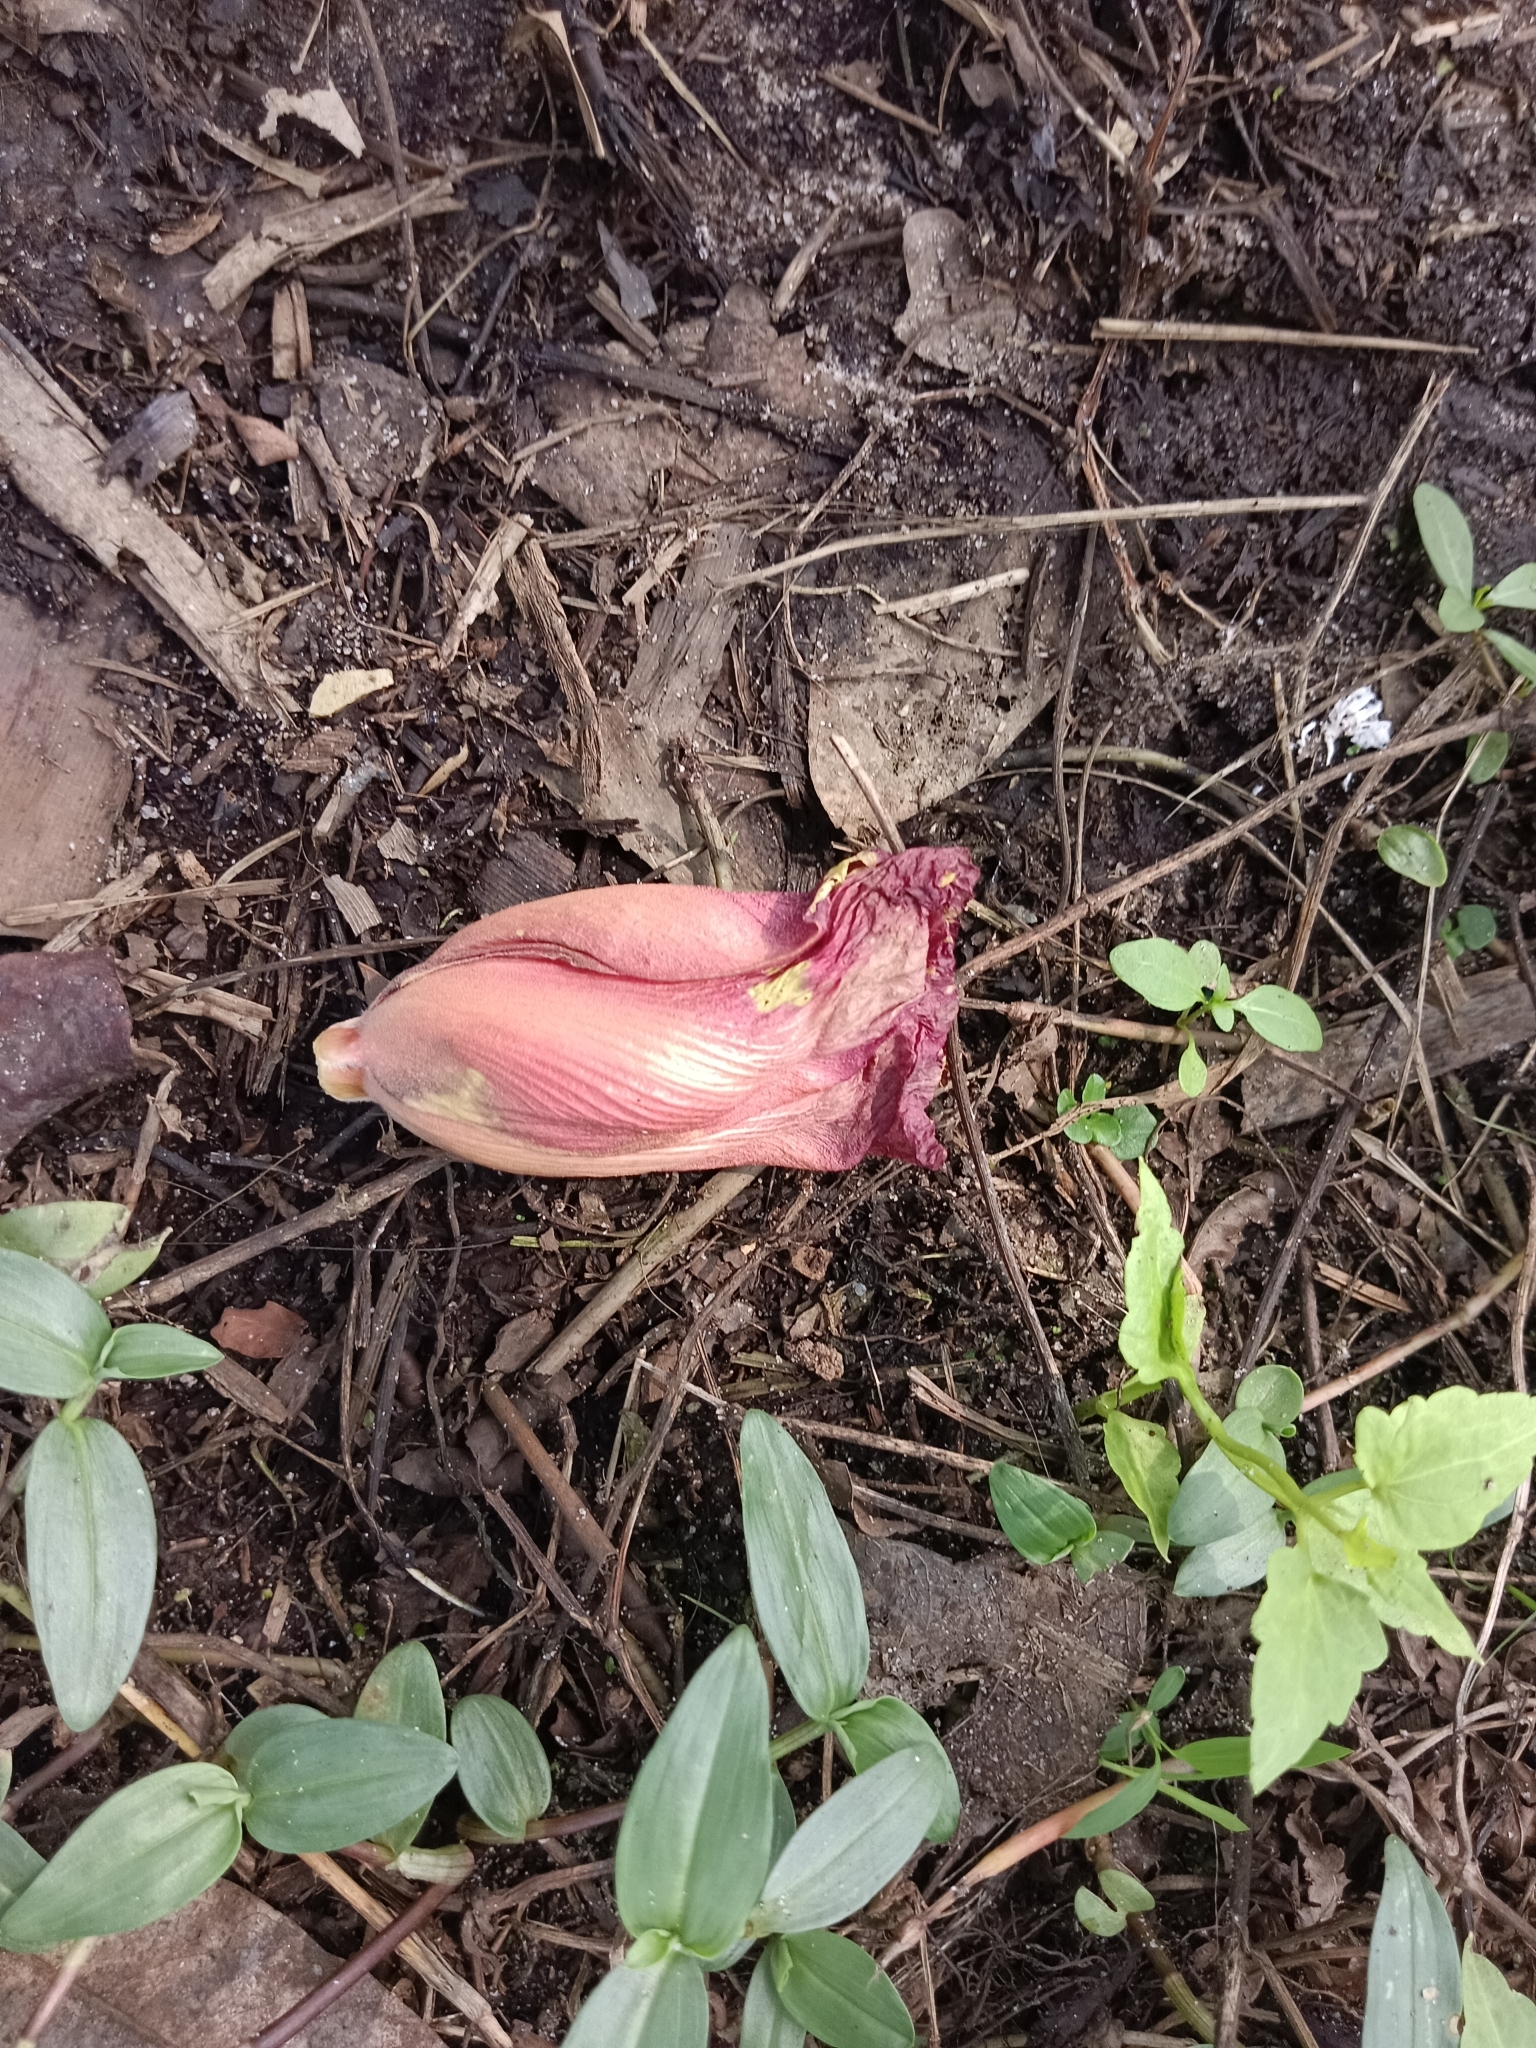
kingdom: Plantae
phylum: Tracheophyta
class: Magnoliopsida
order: Malvales
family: Malvaceae
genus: Thespesia
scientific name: Thespesia populnea
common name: Seaside mahoe
